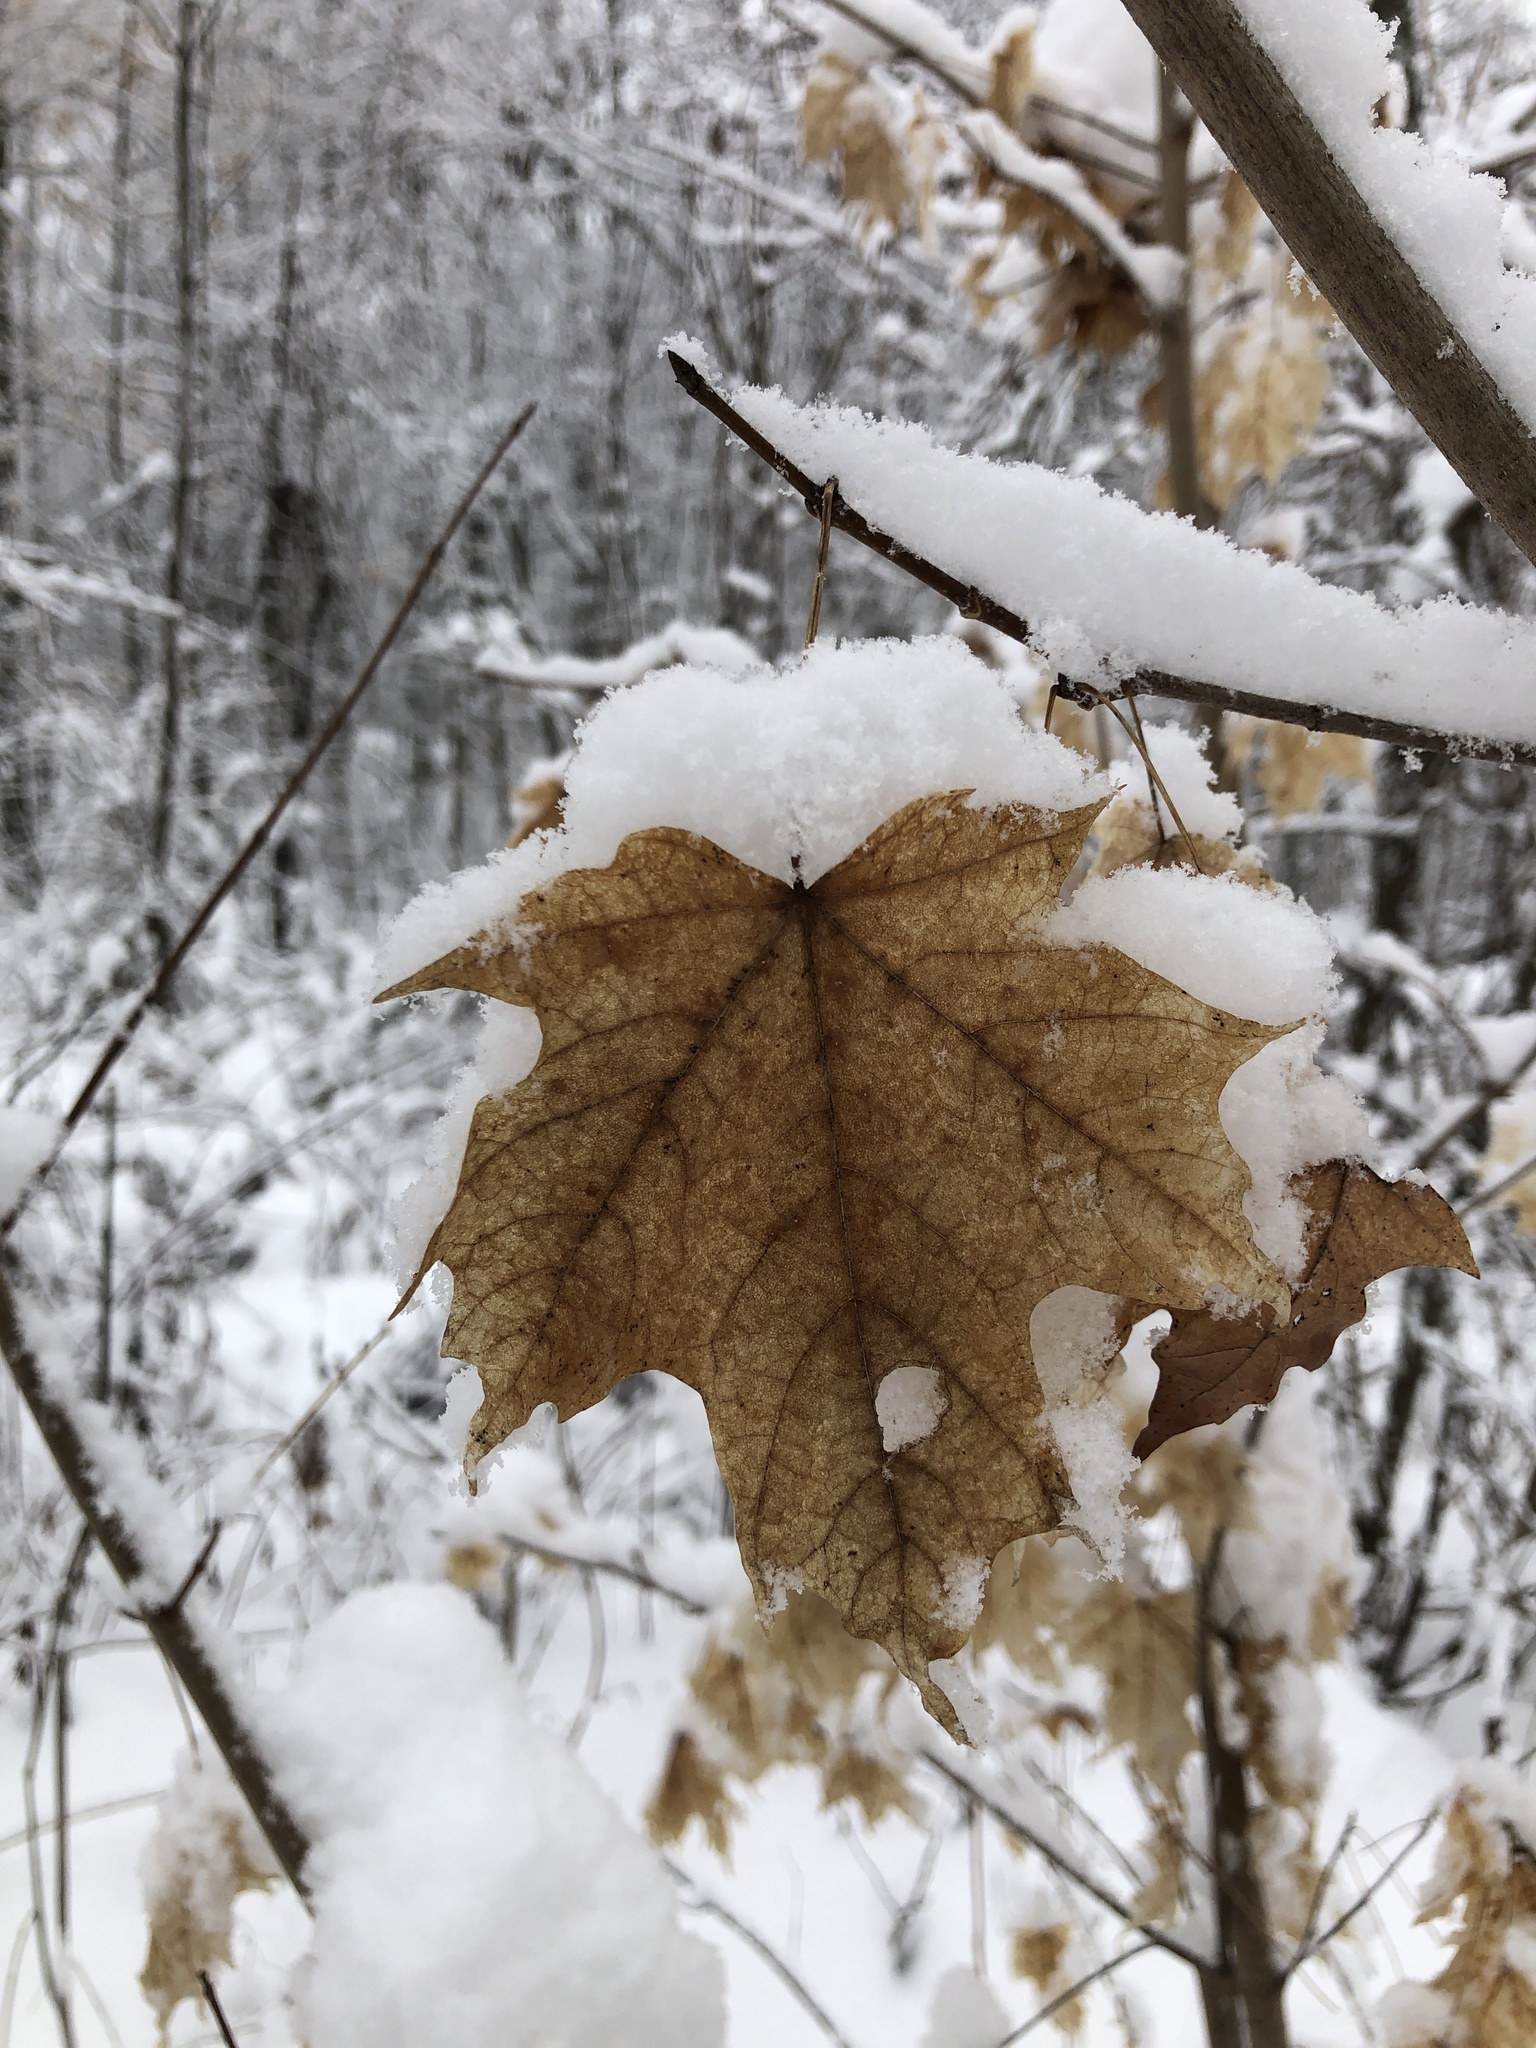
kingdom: Plantae
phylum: Tracheophyta
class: Magnoliopsida
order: Sapindales
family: Sapindaceae
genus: Acer
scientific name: Acer saccharum
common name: Sugar maple
